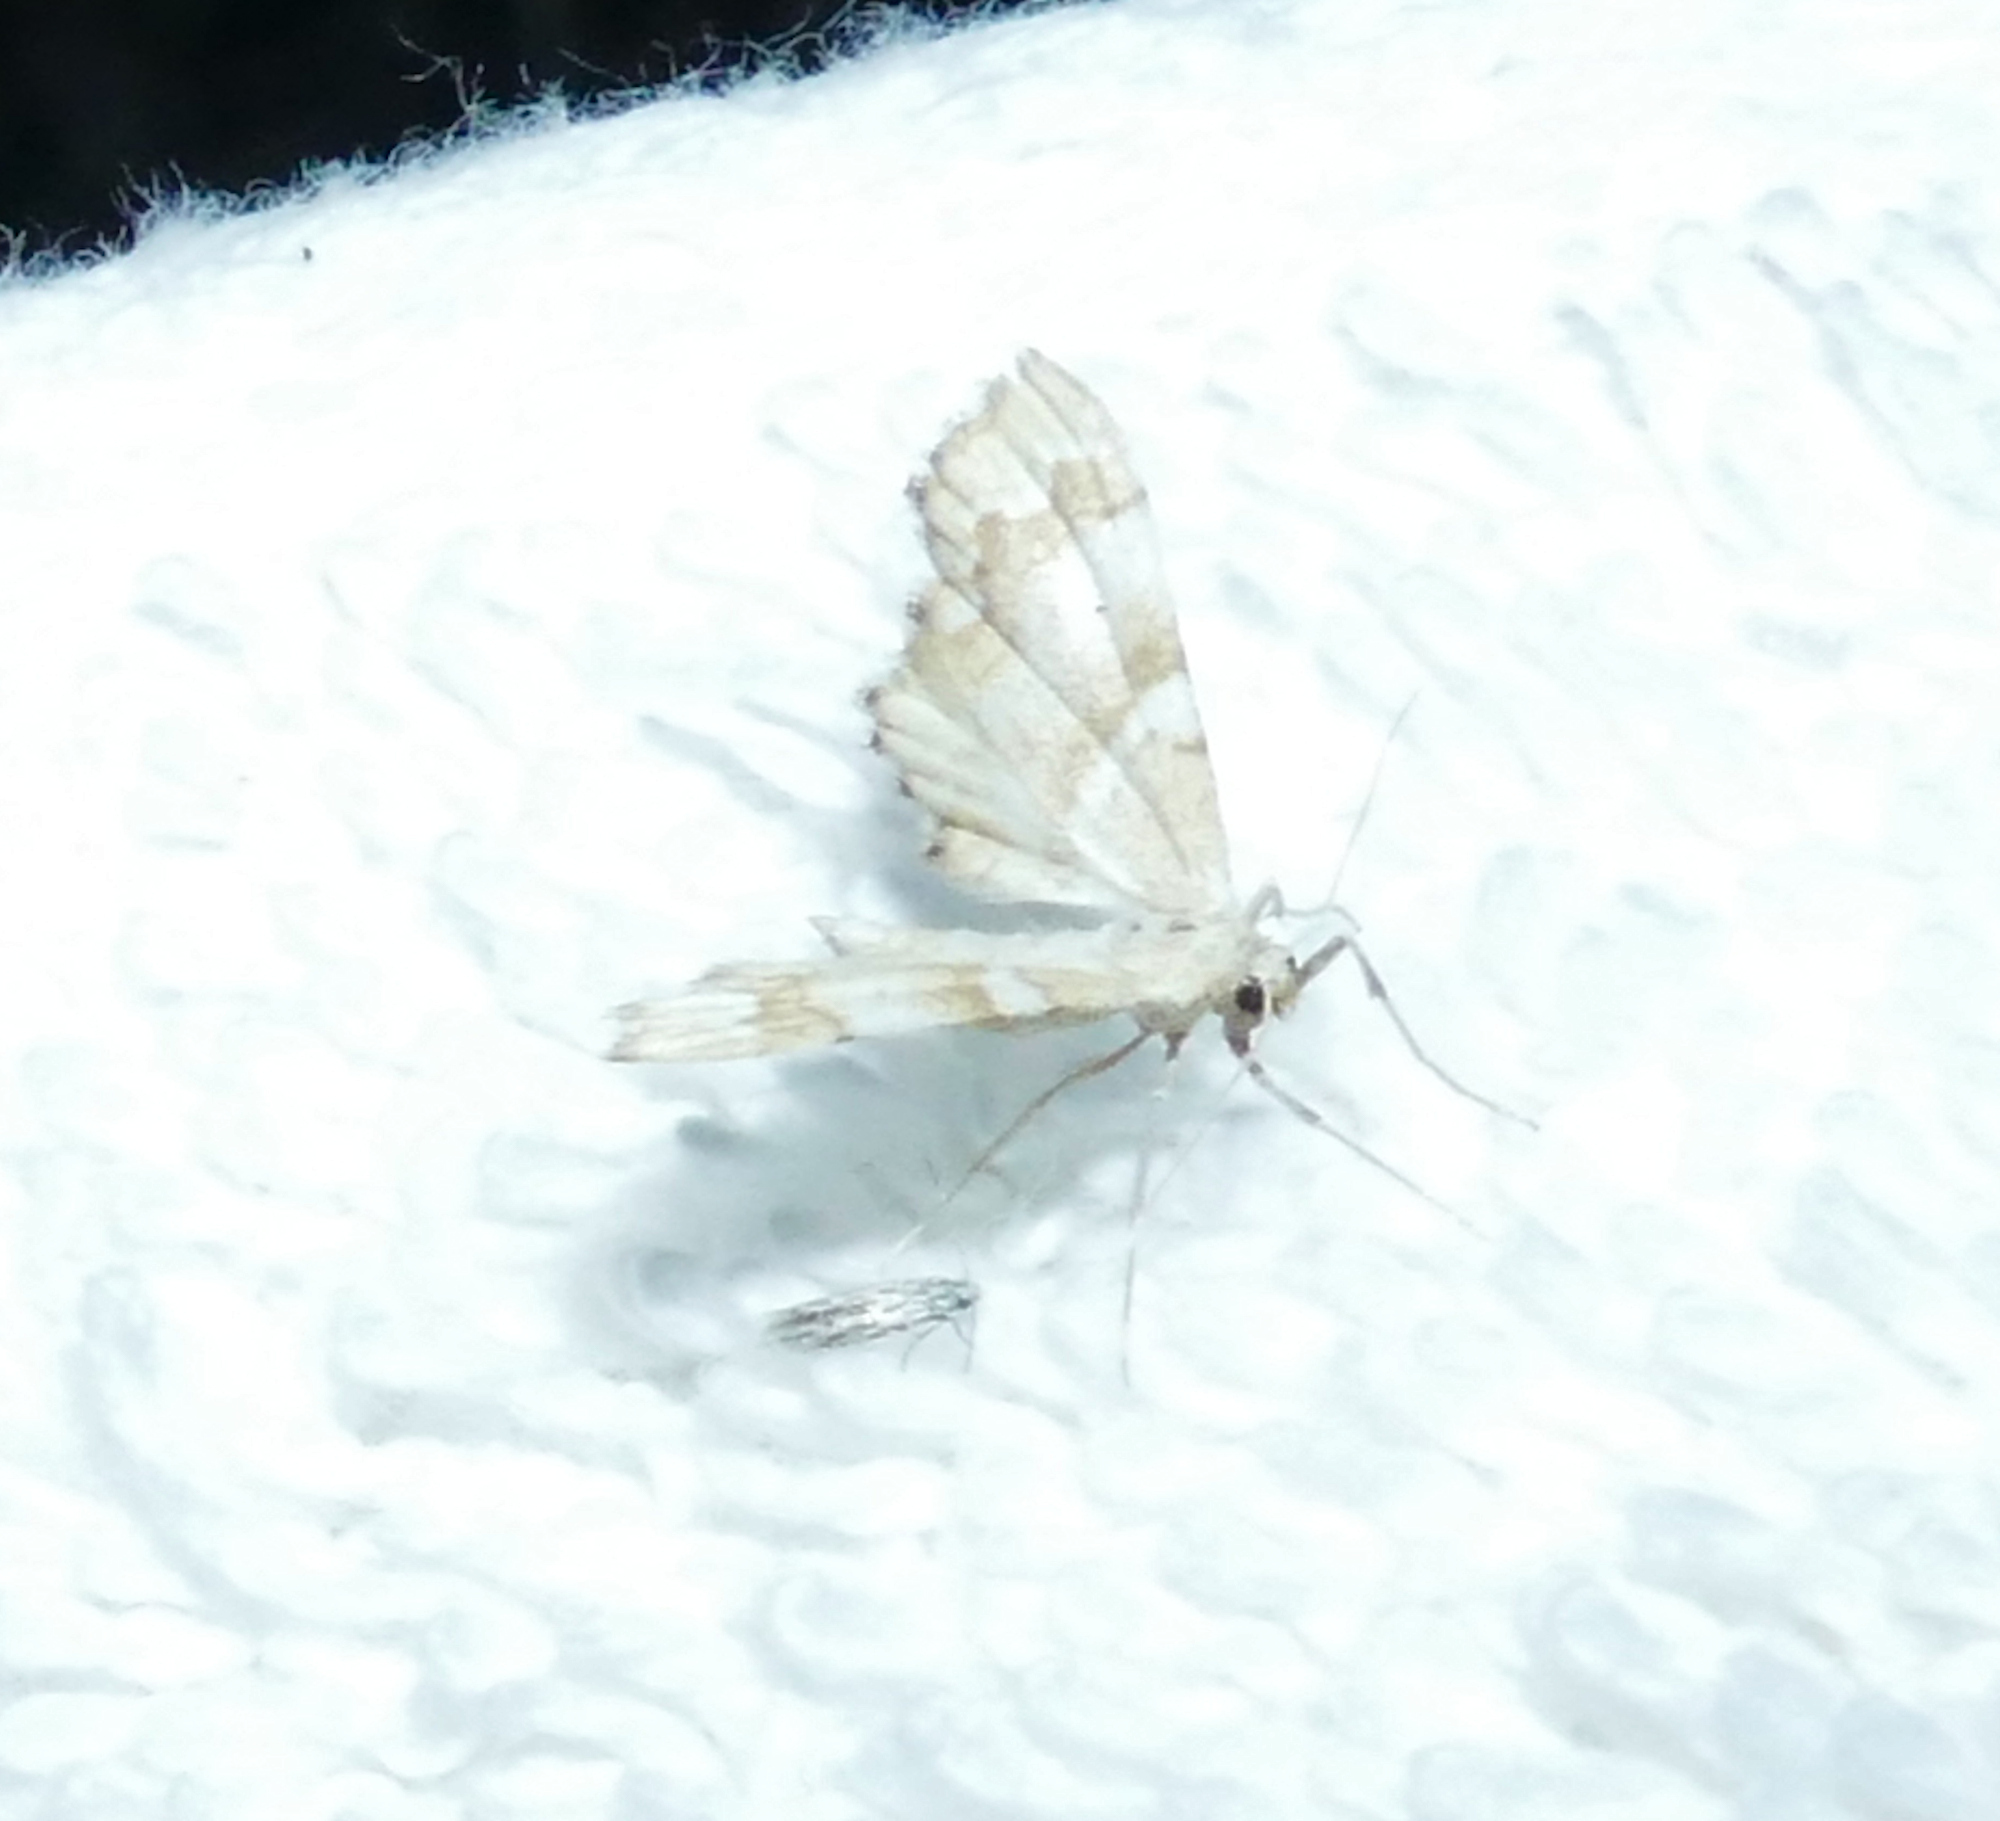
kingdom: Animalia
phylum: Arthropoda
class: Insecta
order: Lepidoptera
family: Geometridae
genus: Odontoptila
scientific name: Odontoptila obrimo
